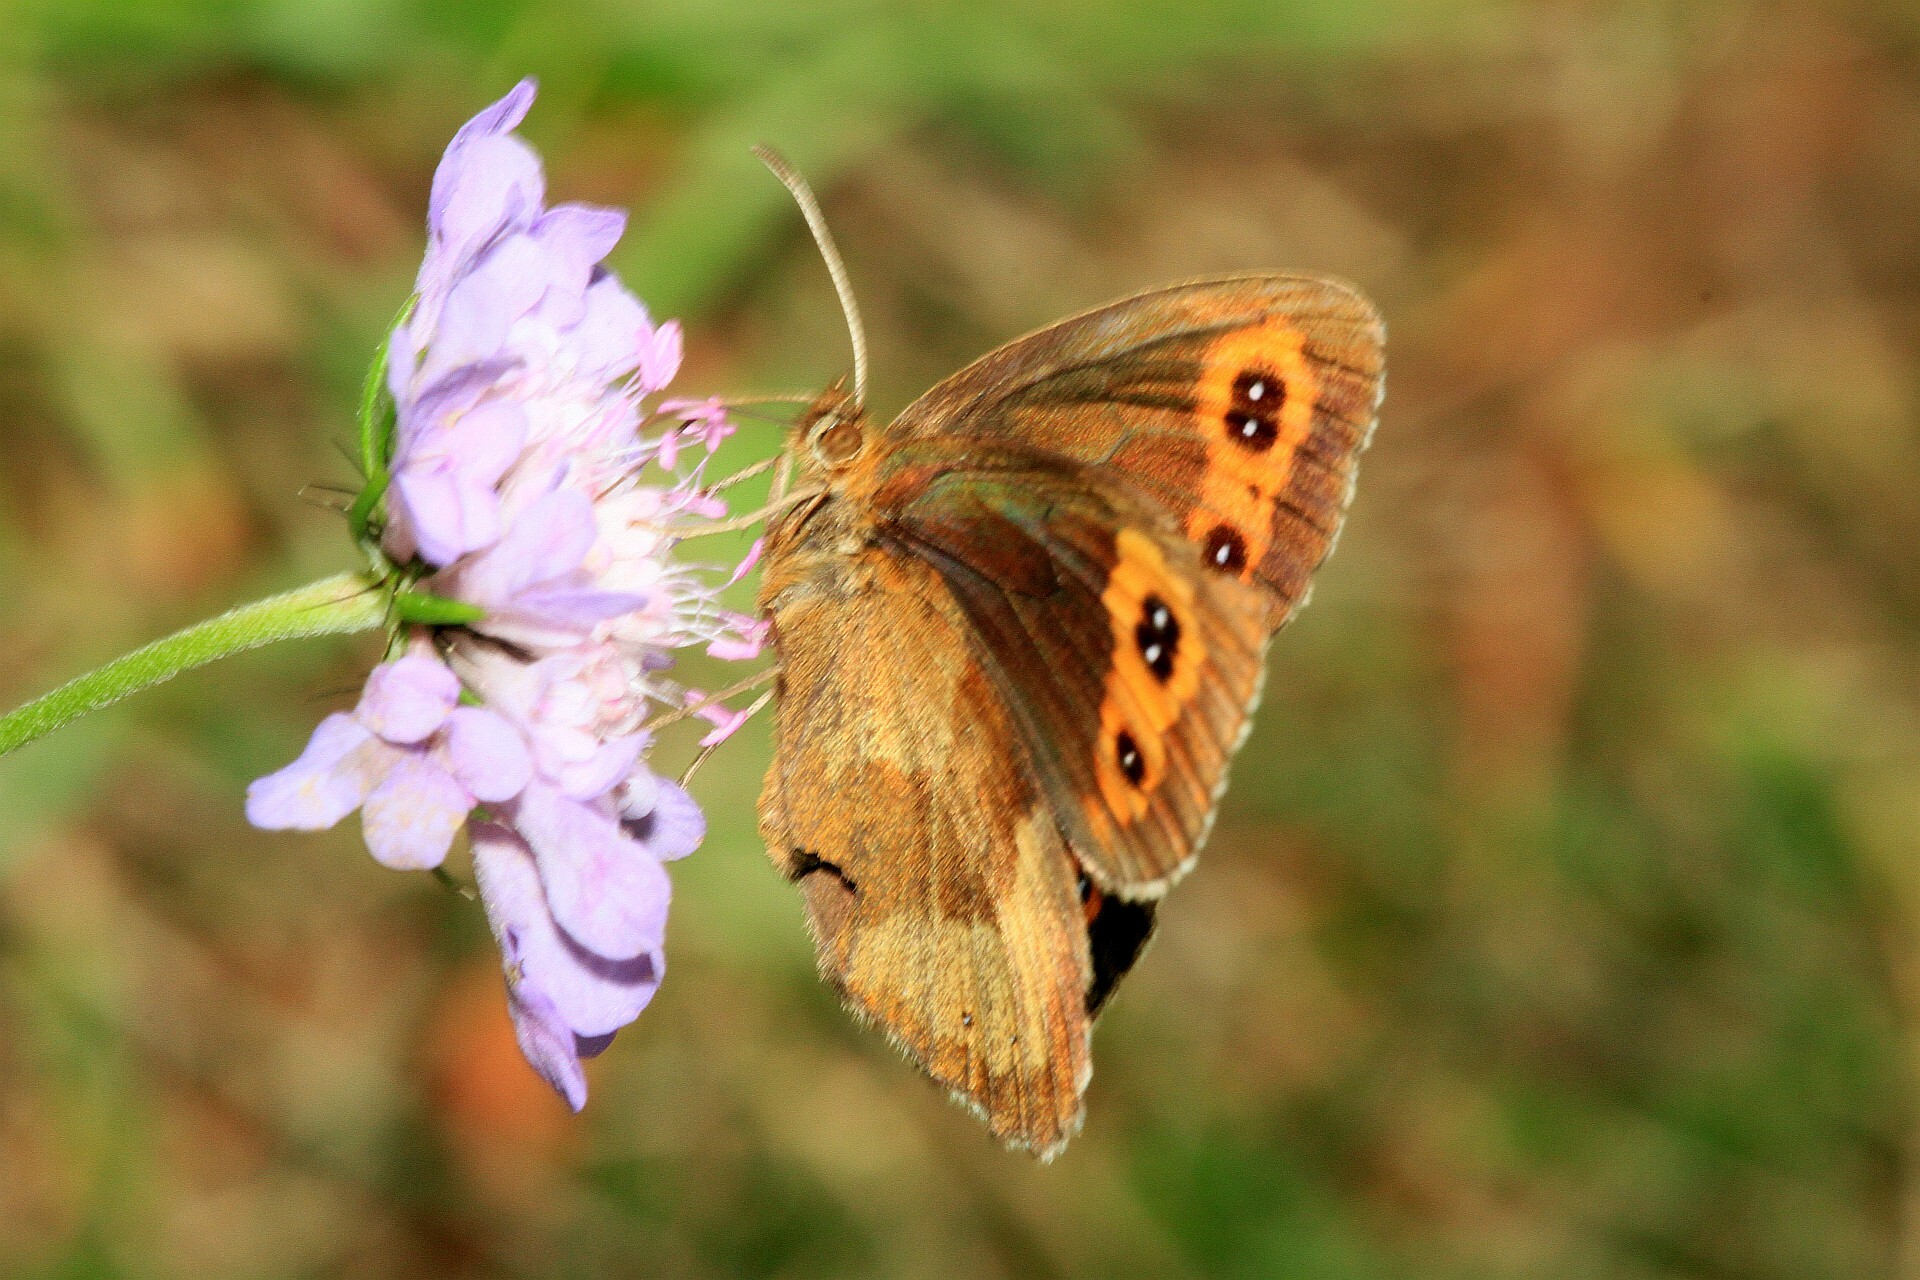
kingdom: Animalia
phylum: Arthropoda
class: Insecta
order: Lepidoptera
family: Nymphalidae
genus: Erebia
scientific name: Erebia aethiops
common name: Scotch argus
